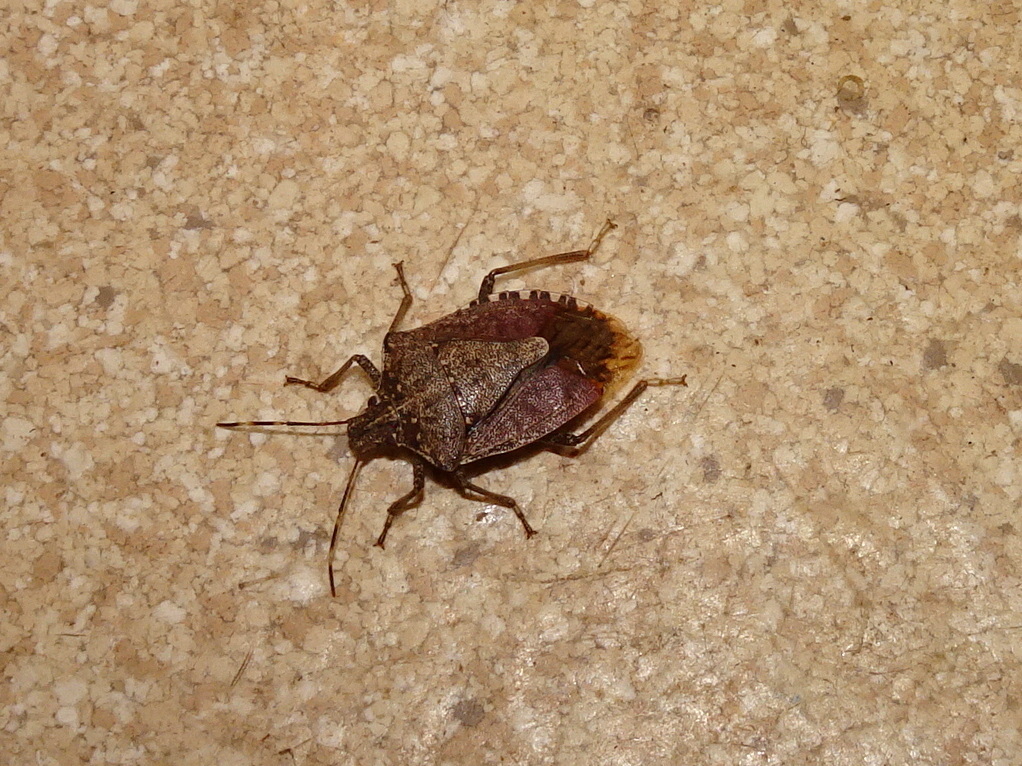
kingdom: Animalia
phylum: Arthropoda
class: Insecta
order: Hemiptera
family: Pentatomidae
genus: Halyomorpha
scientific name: Halyomorpha halys
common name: Brown marmorated stink bug
